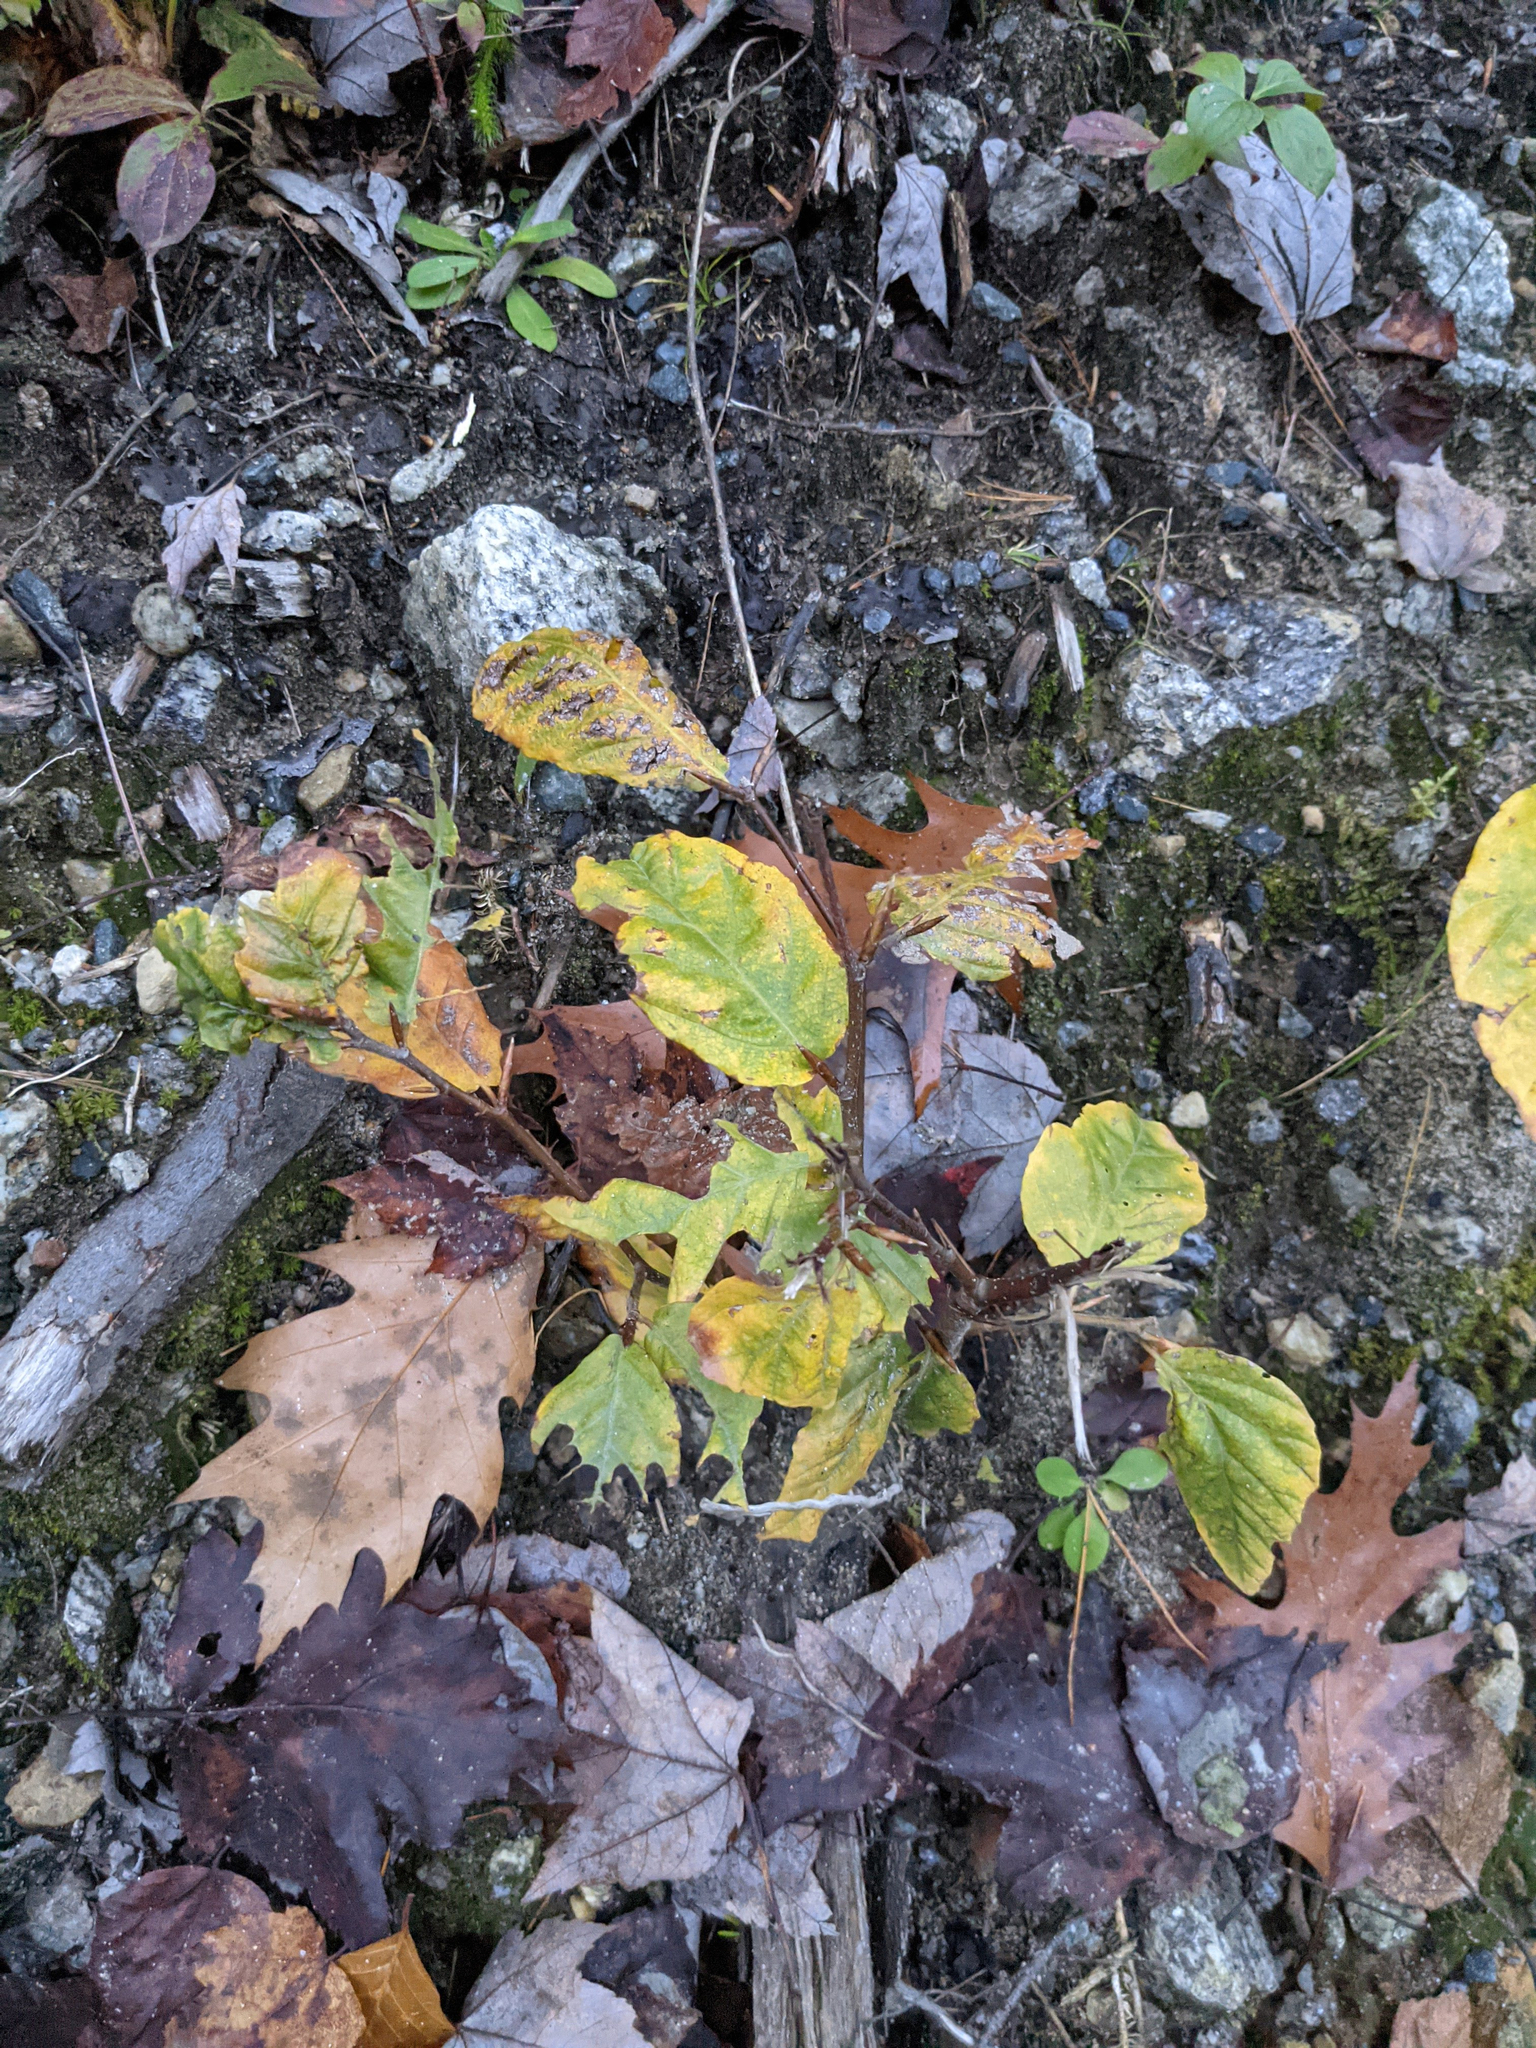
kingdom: Plantae
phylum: Tracheophyta
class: Magnoliopsida
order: Fagales
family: Fagaceae
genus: Fagus
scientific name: Fagus grandifolia
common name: American beech
